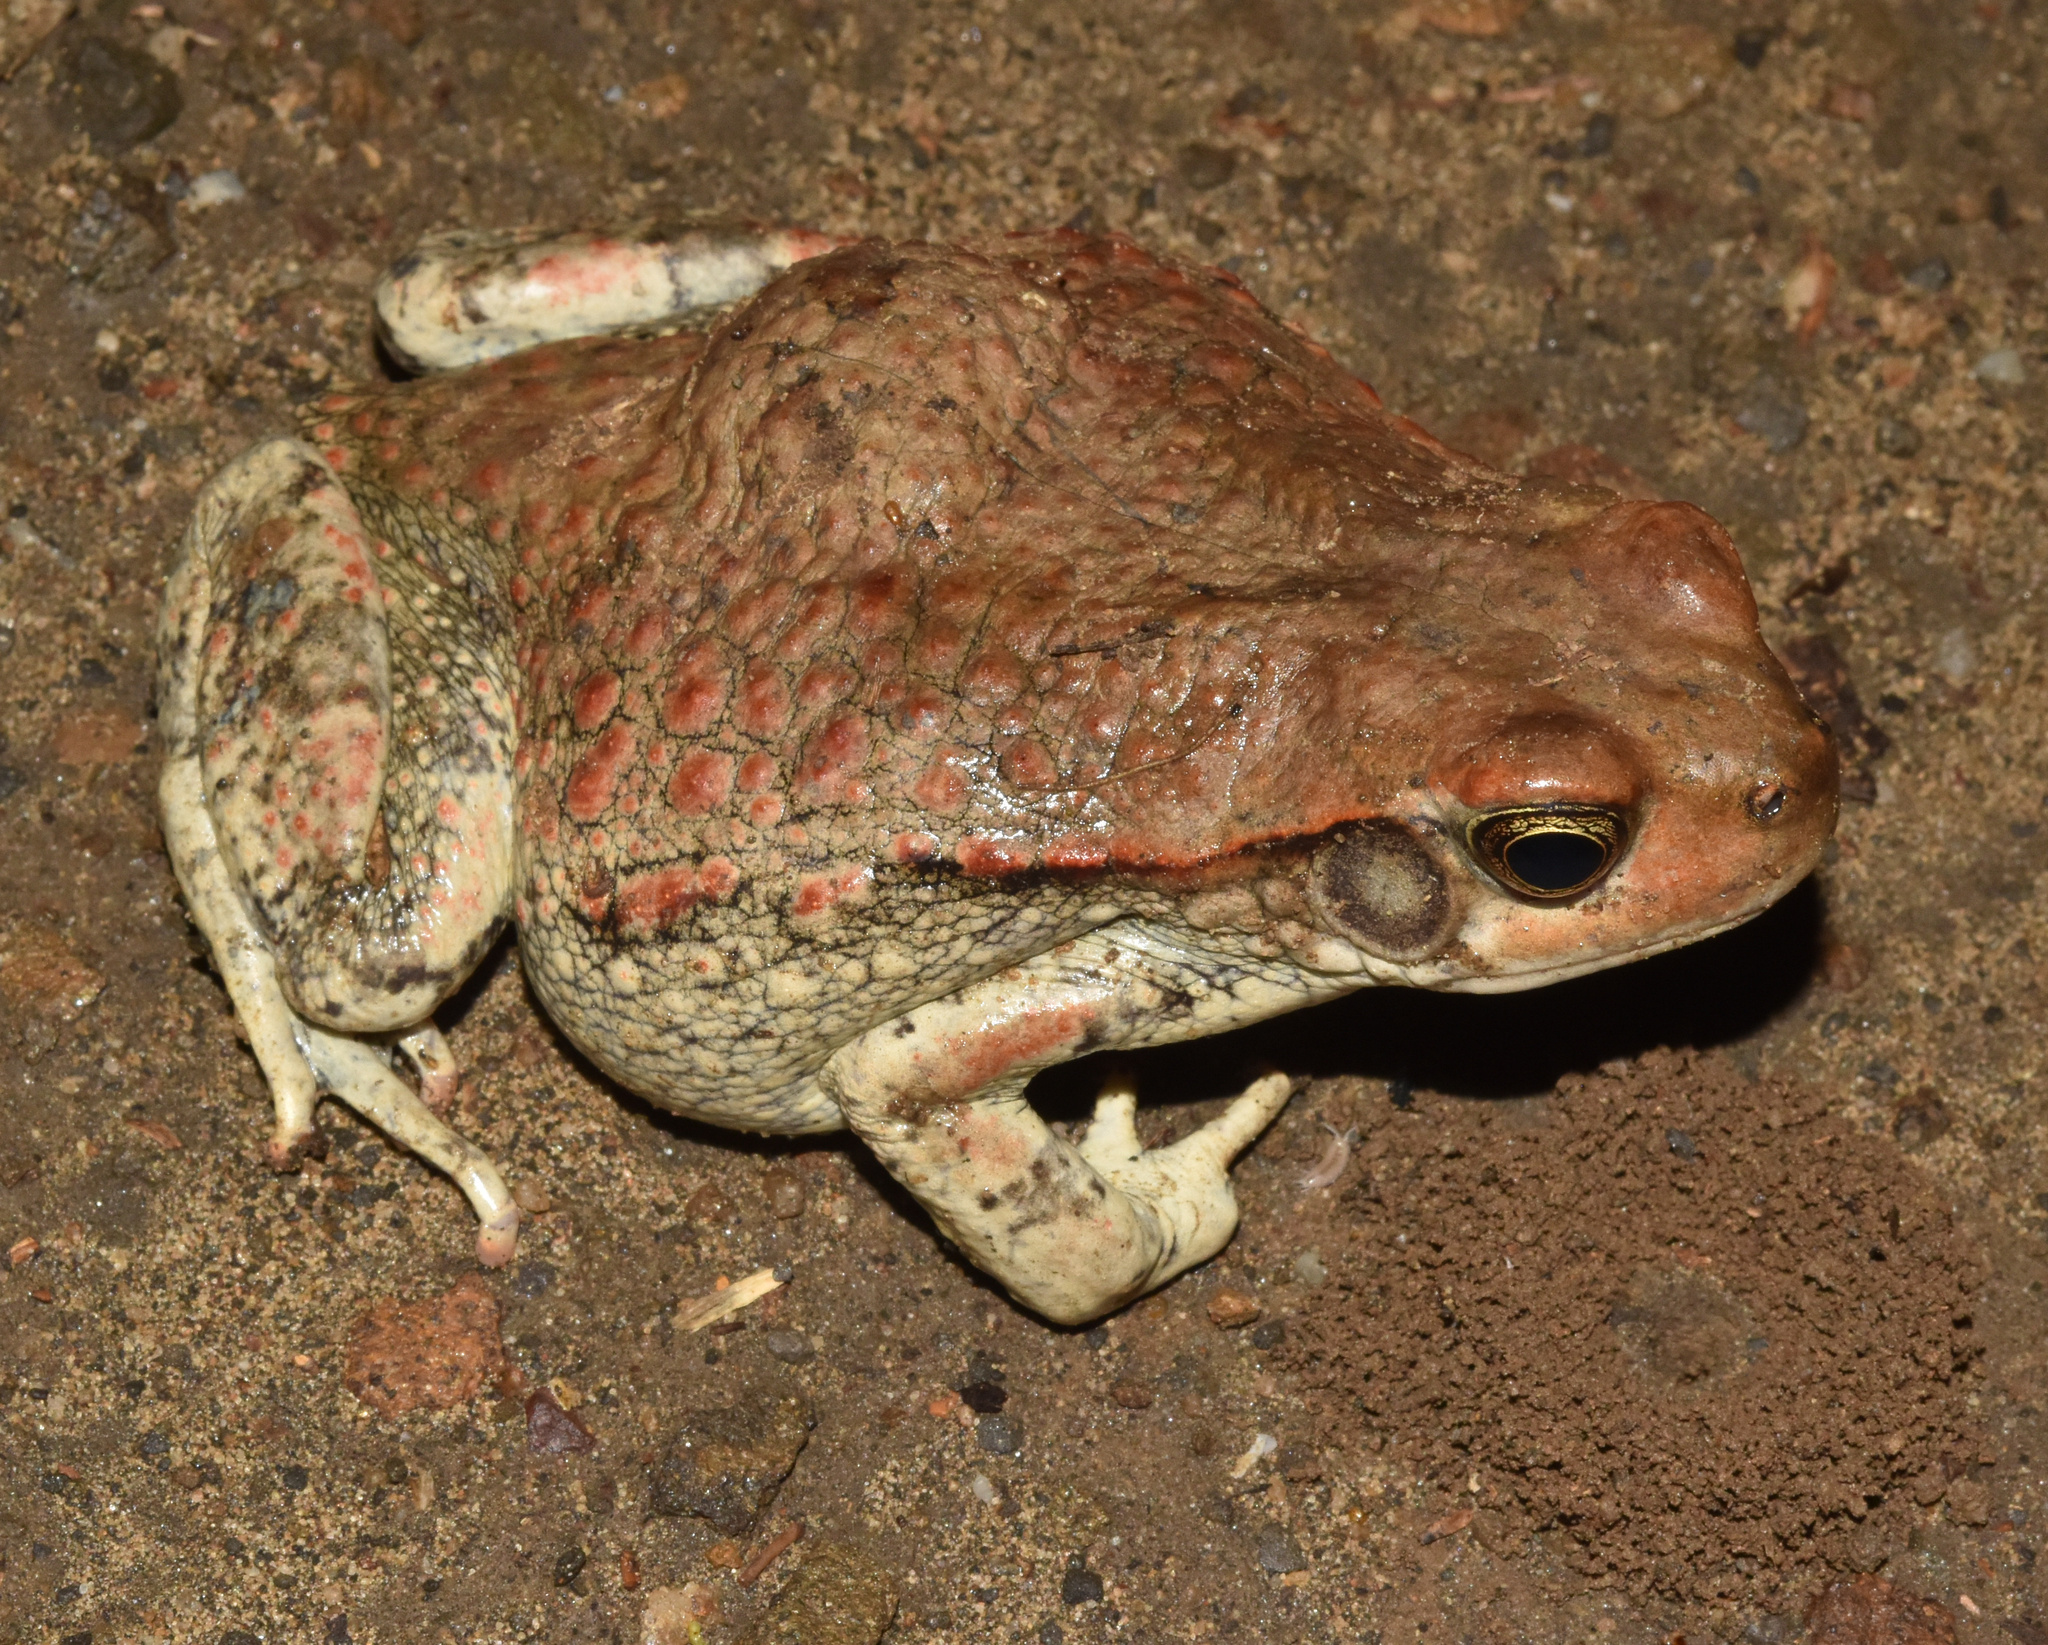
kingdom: Animalia
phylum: Chordata
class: Amphibia
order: Anura
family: Bufonidae
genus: Schismaderma
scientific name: Schismaderma carens
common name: African split-skin toad
